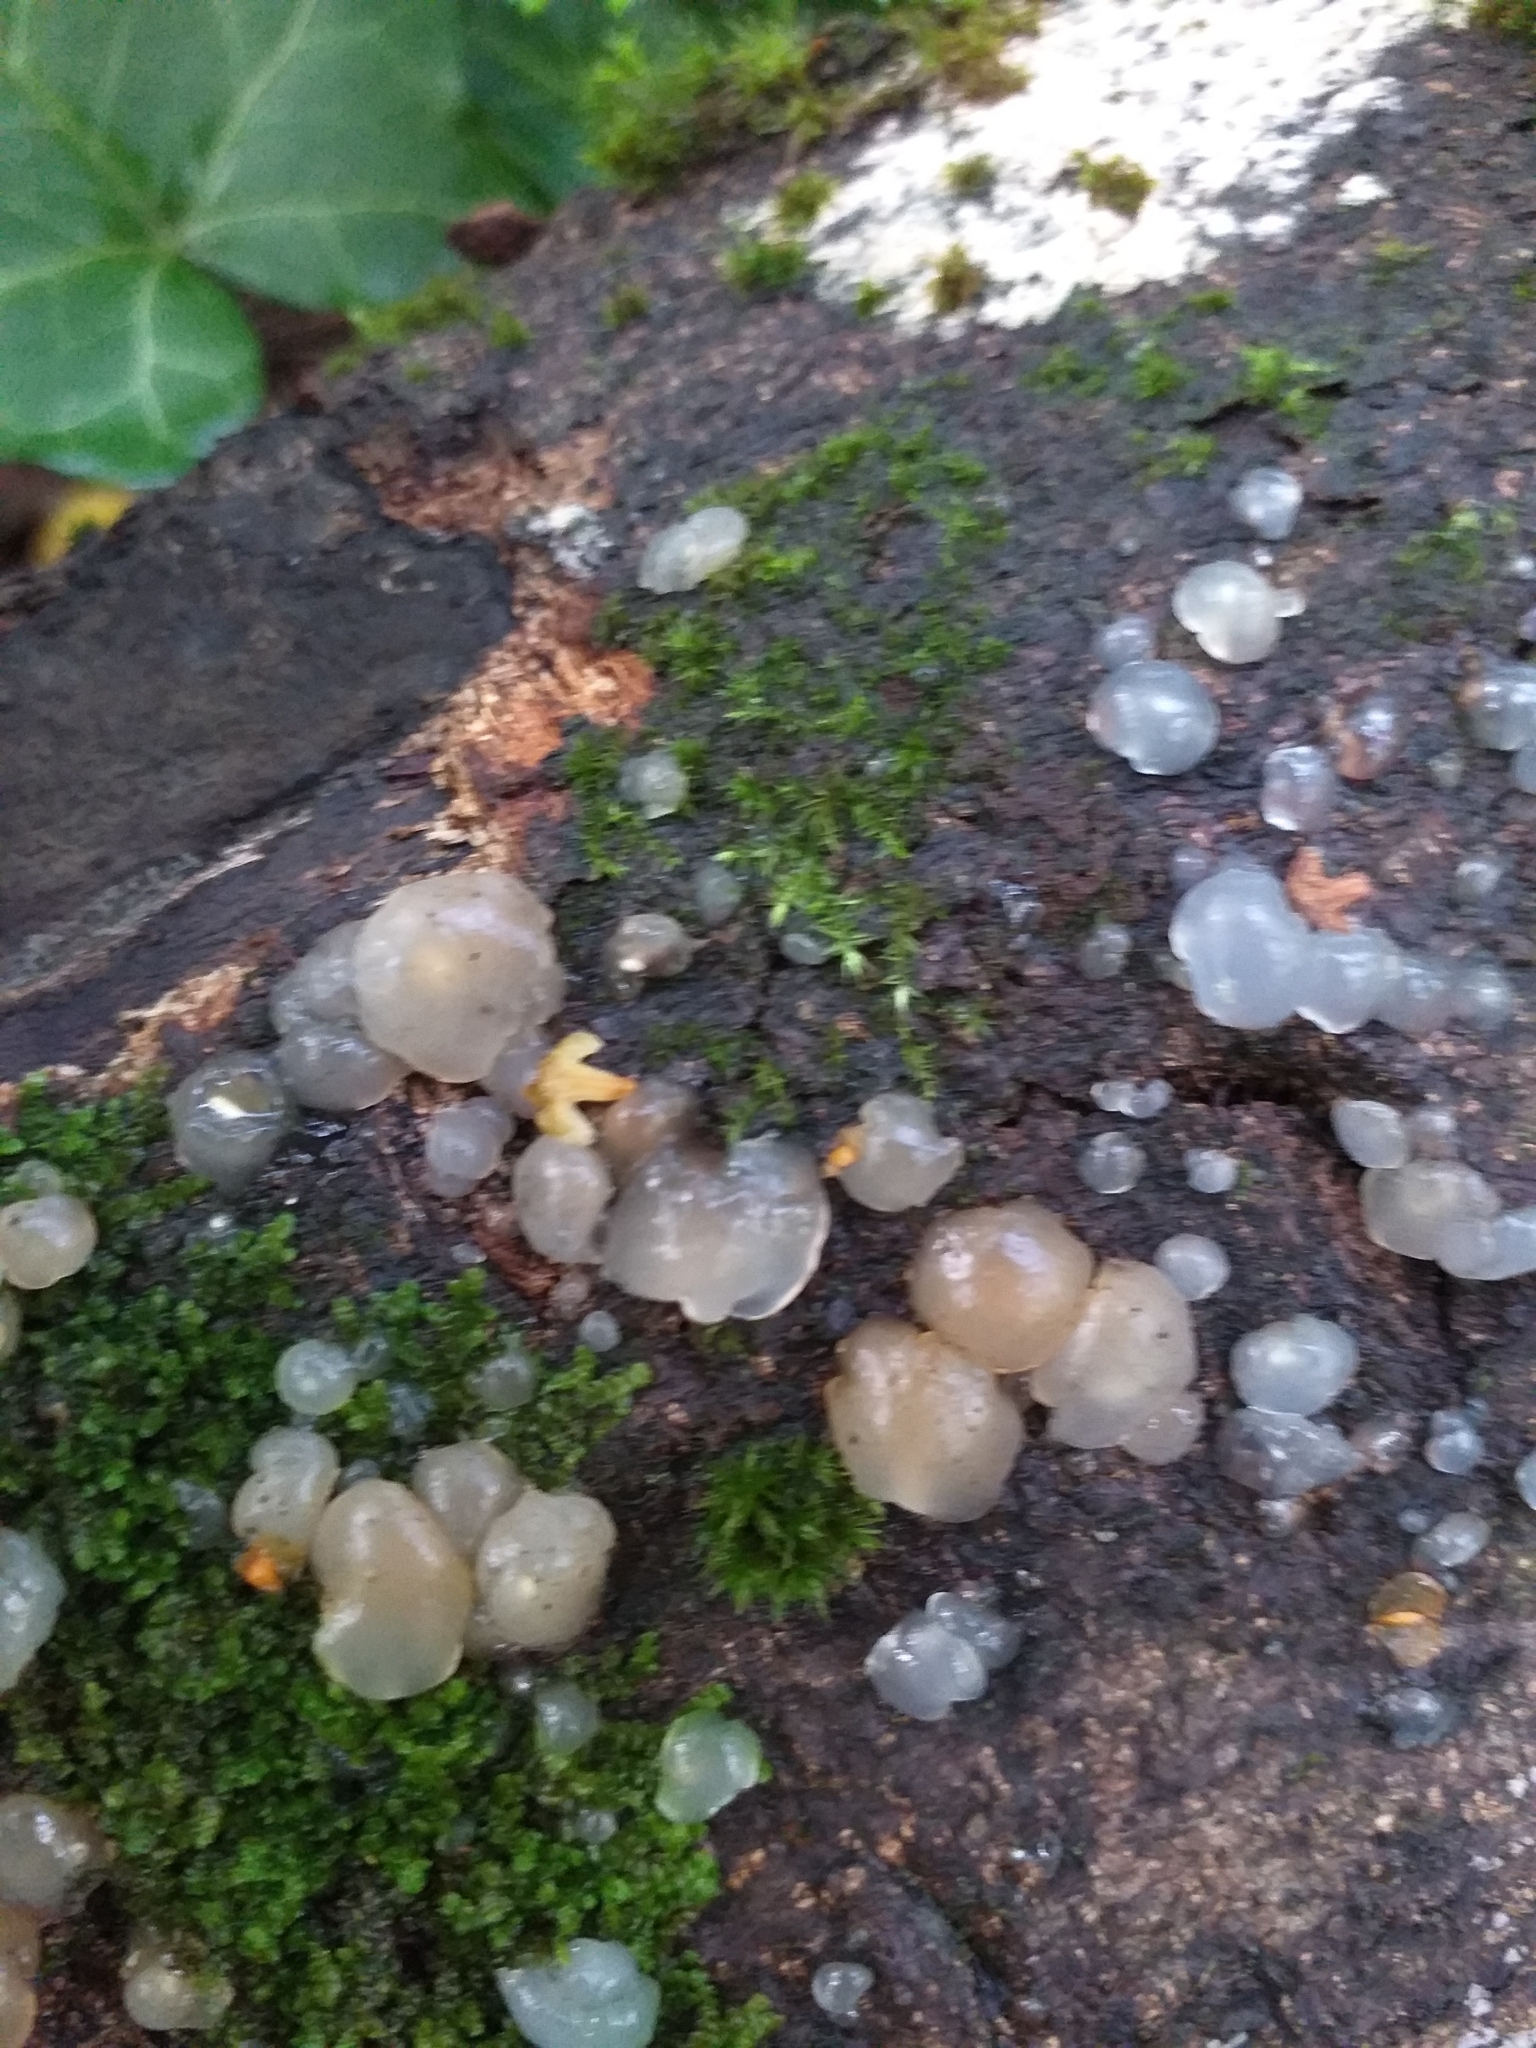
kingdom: Fungi
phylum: Basidiomycota
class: Agaricomycetes
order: Auriculariales
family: Hyaloriaceae
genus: Myxarium
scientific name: Myxarium nucleatum
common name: Crystal brain fungus
